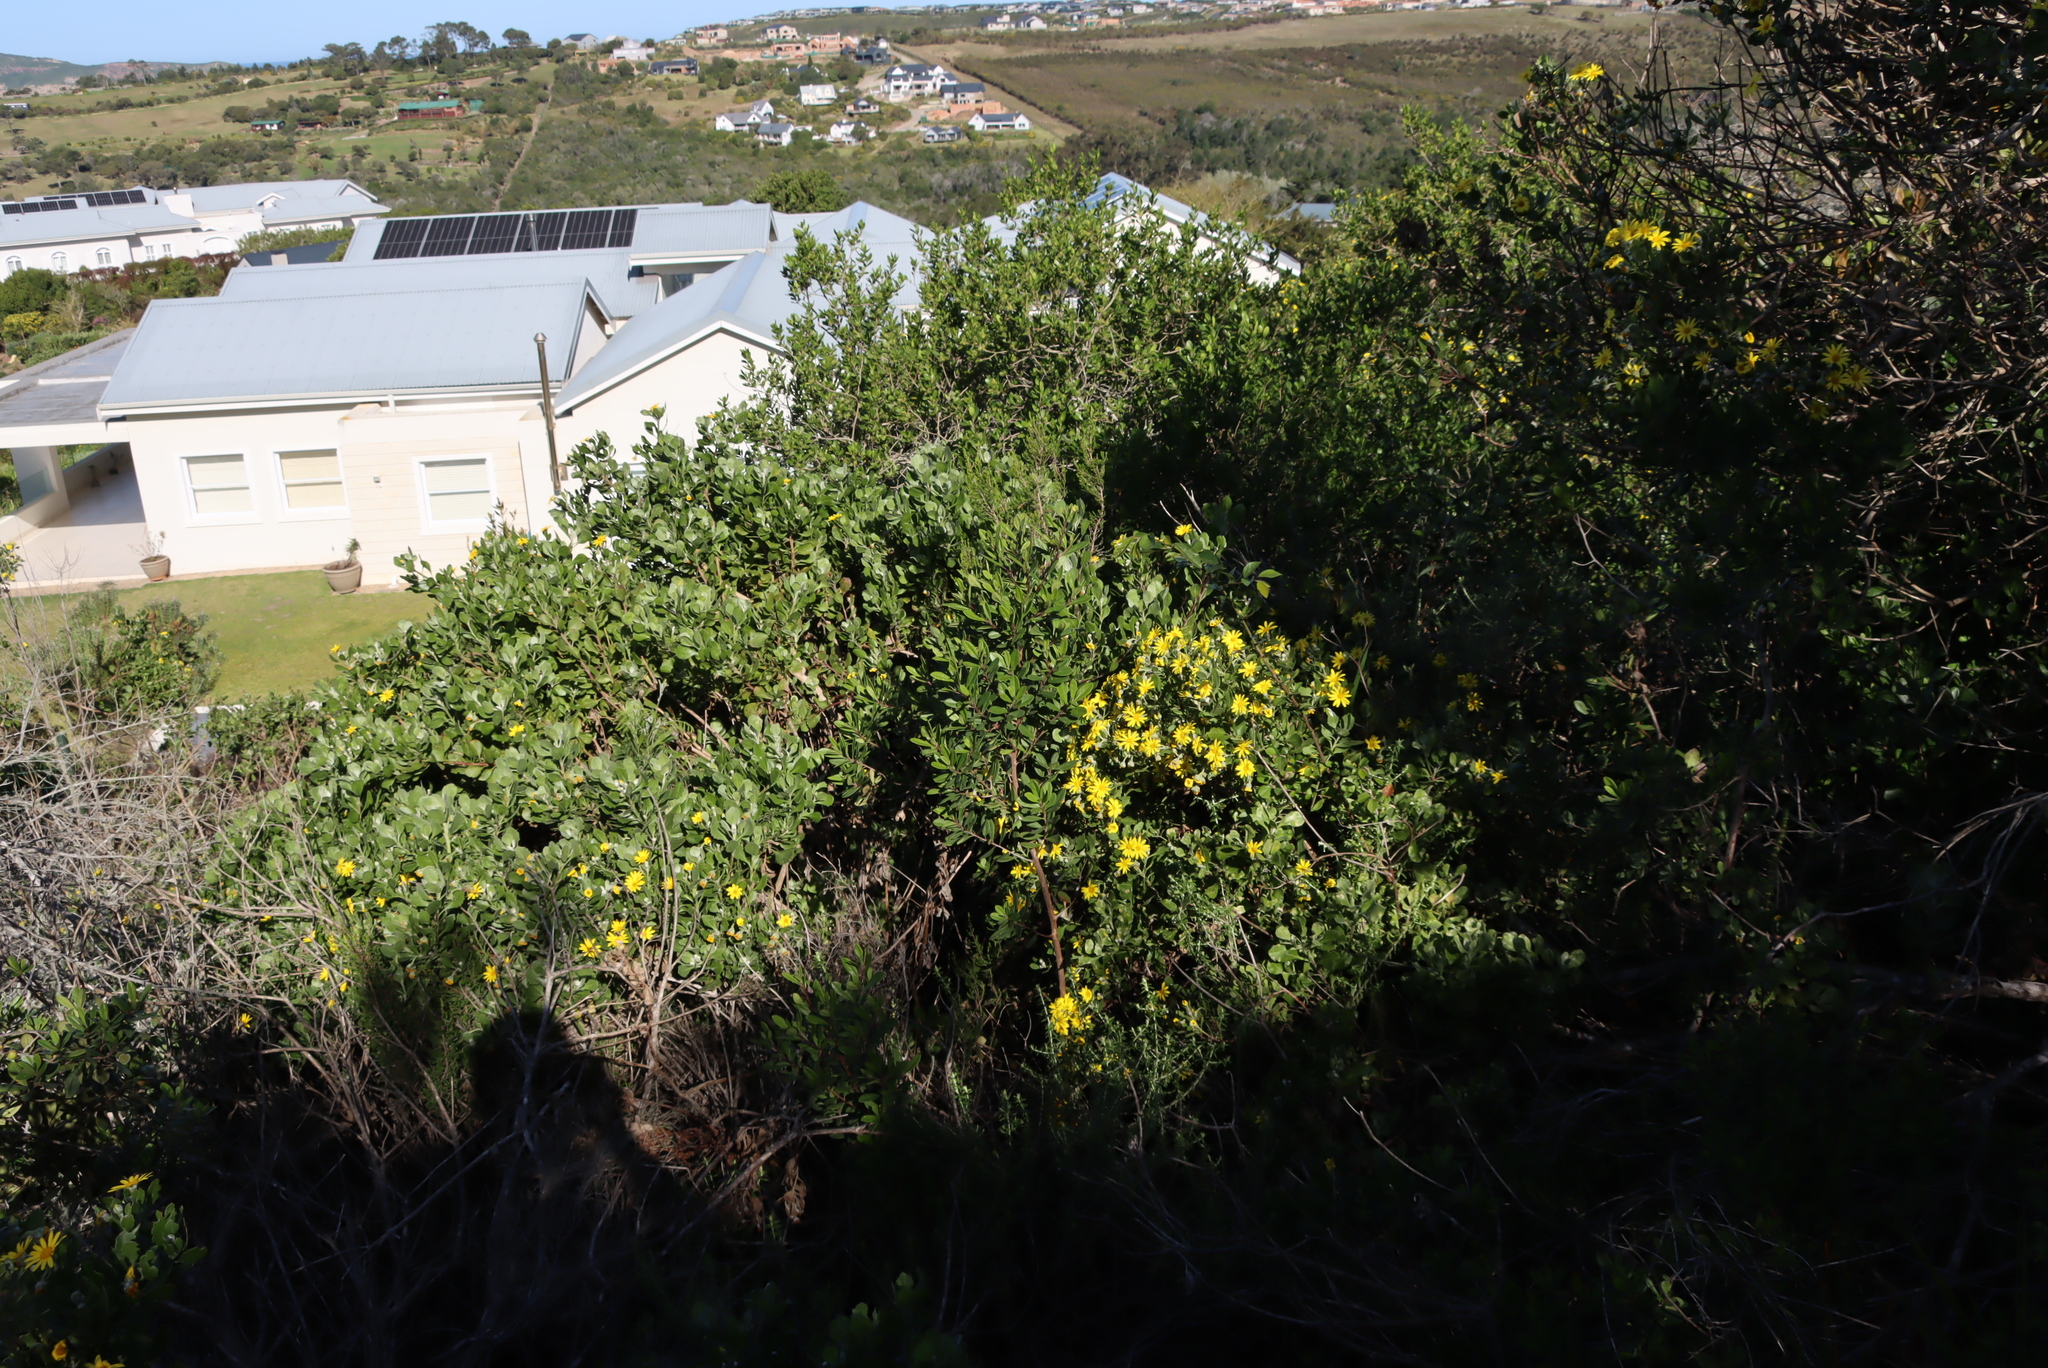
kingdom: Plantae
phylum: Tracheophyta
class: Magnoliopsida
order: Asterales
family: Asteraceae
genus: Osteospermum
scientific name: Osteospermum moniliferum
